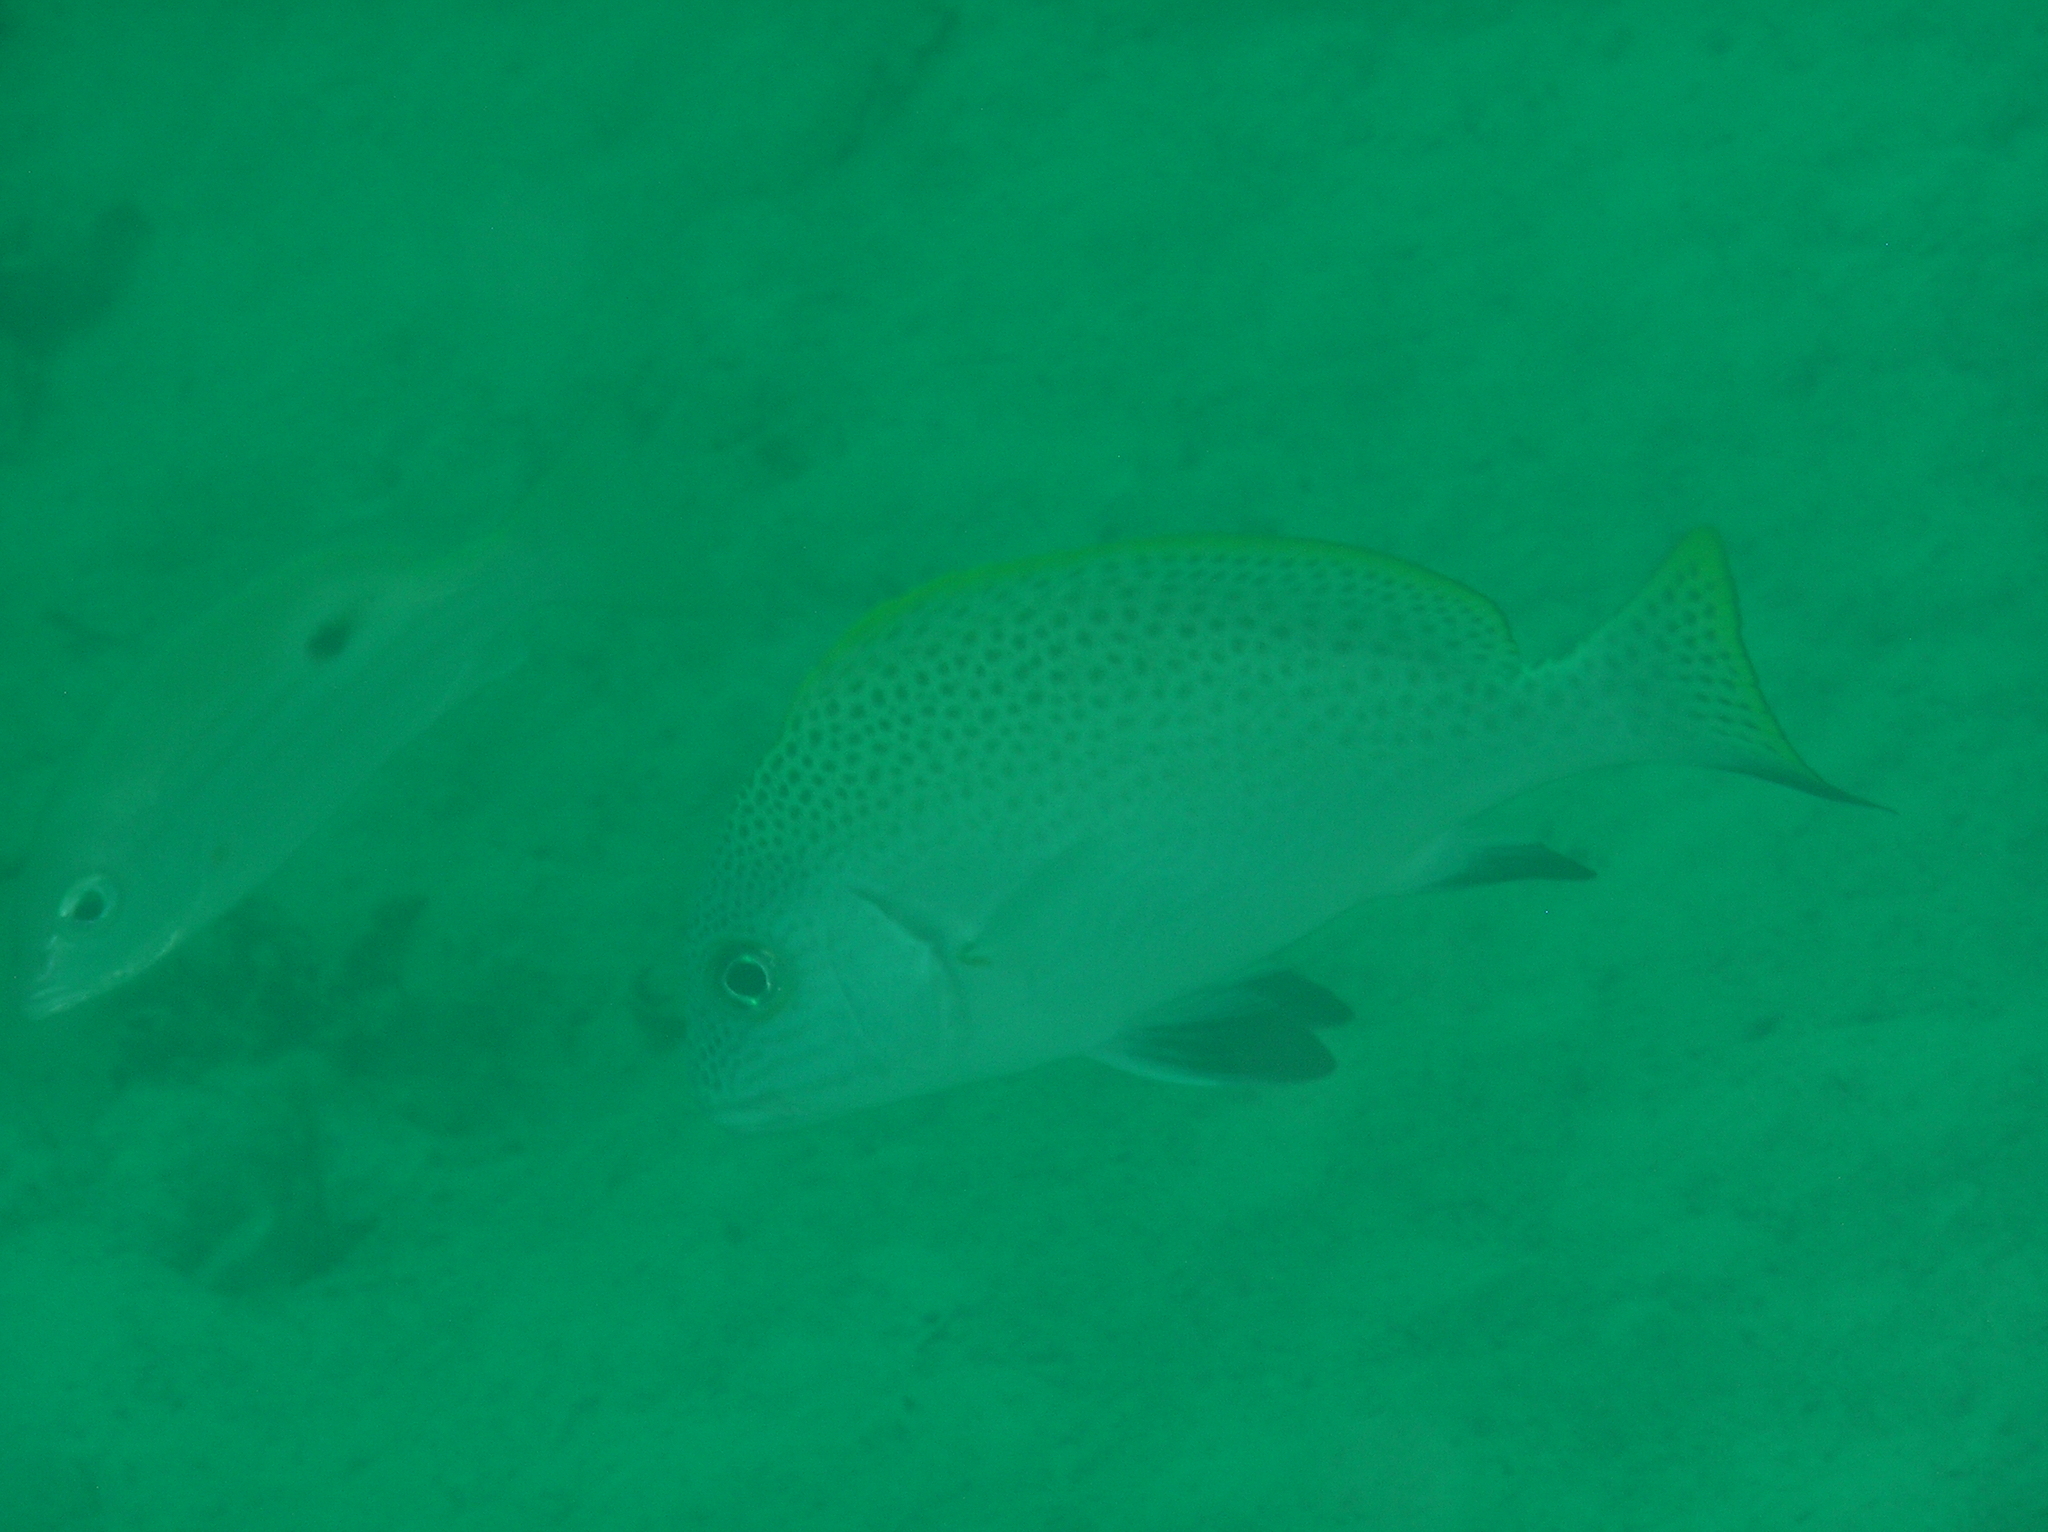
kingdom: Animalia
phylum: Chordata
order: Perciformes
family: Haemulidae
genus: Diagramma
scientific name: Diagramma melanacrum
